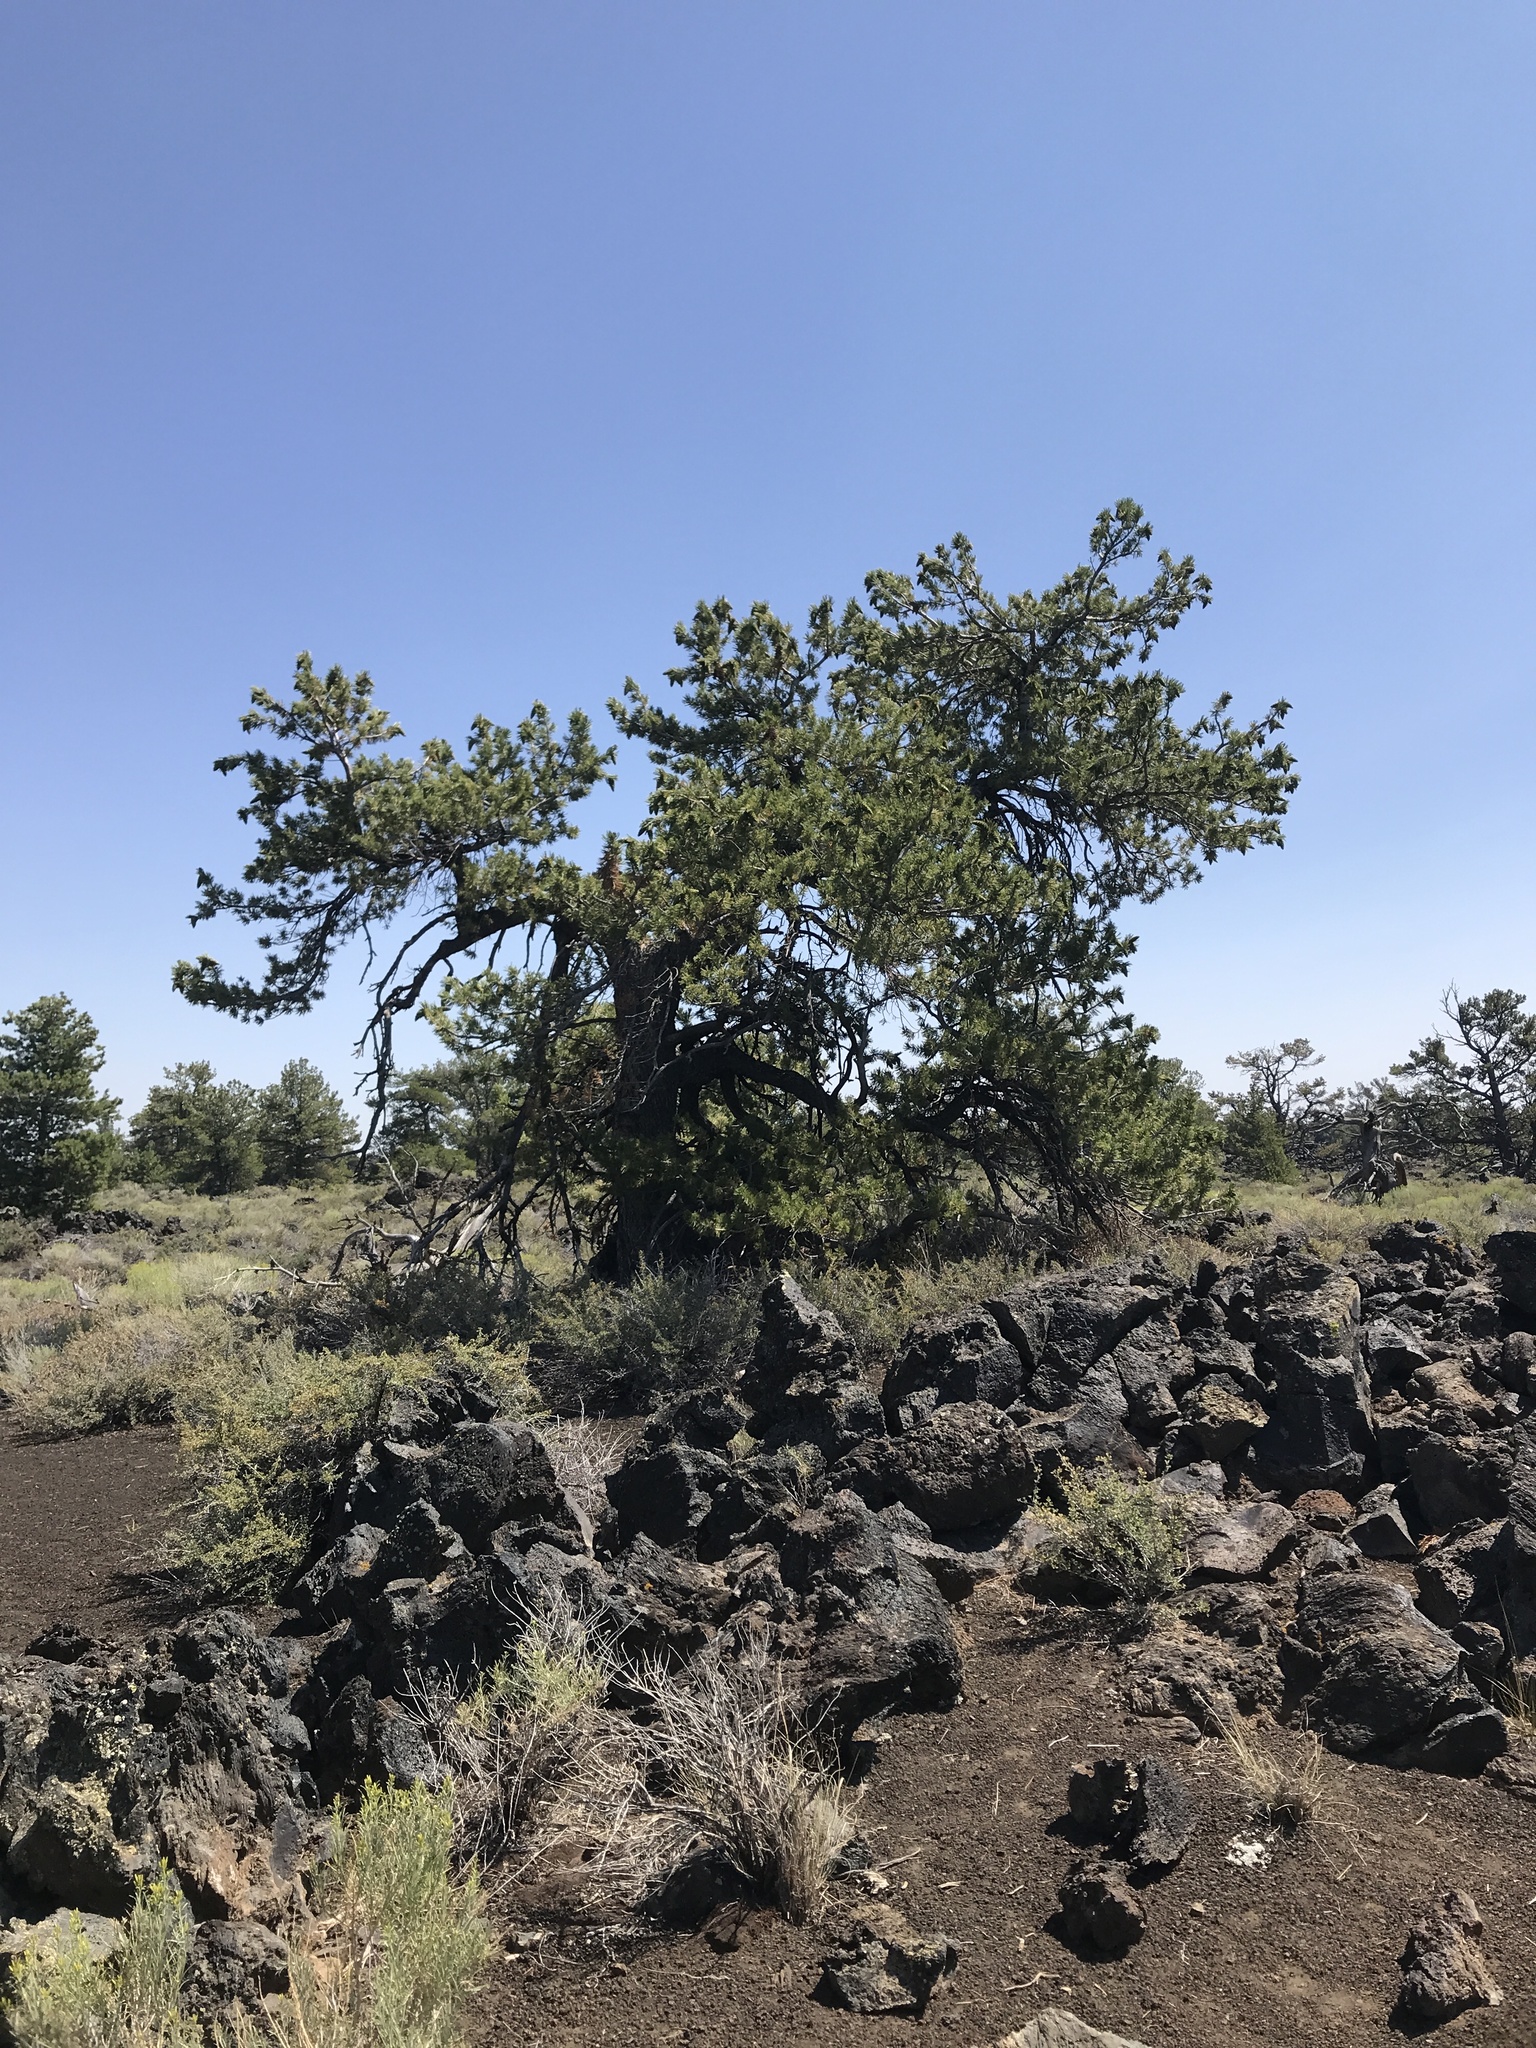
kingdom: Plantae
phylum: Tracheophyta
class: Pinopsida
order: Pinales
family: Pinaceae
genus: Pinus
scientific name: Pinus flexilis
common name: Limber pine
